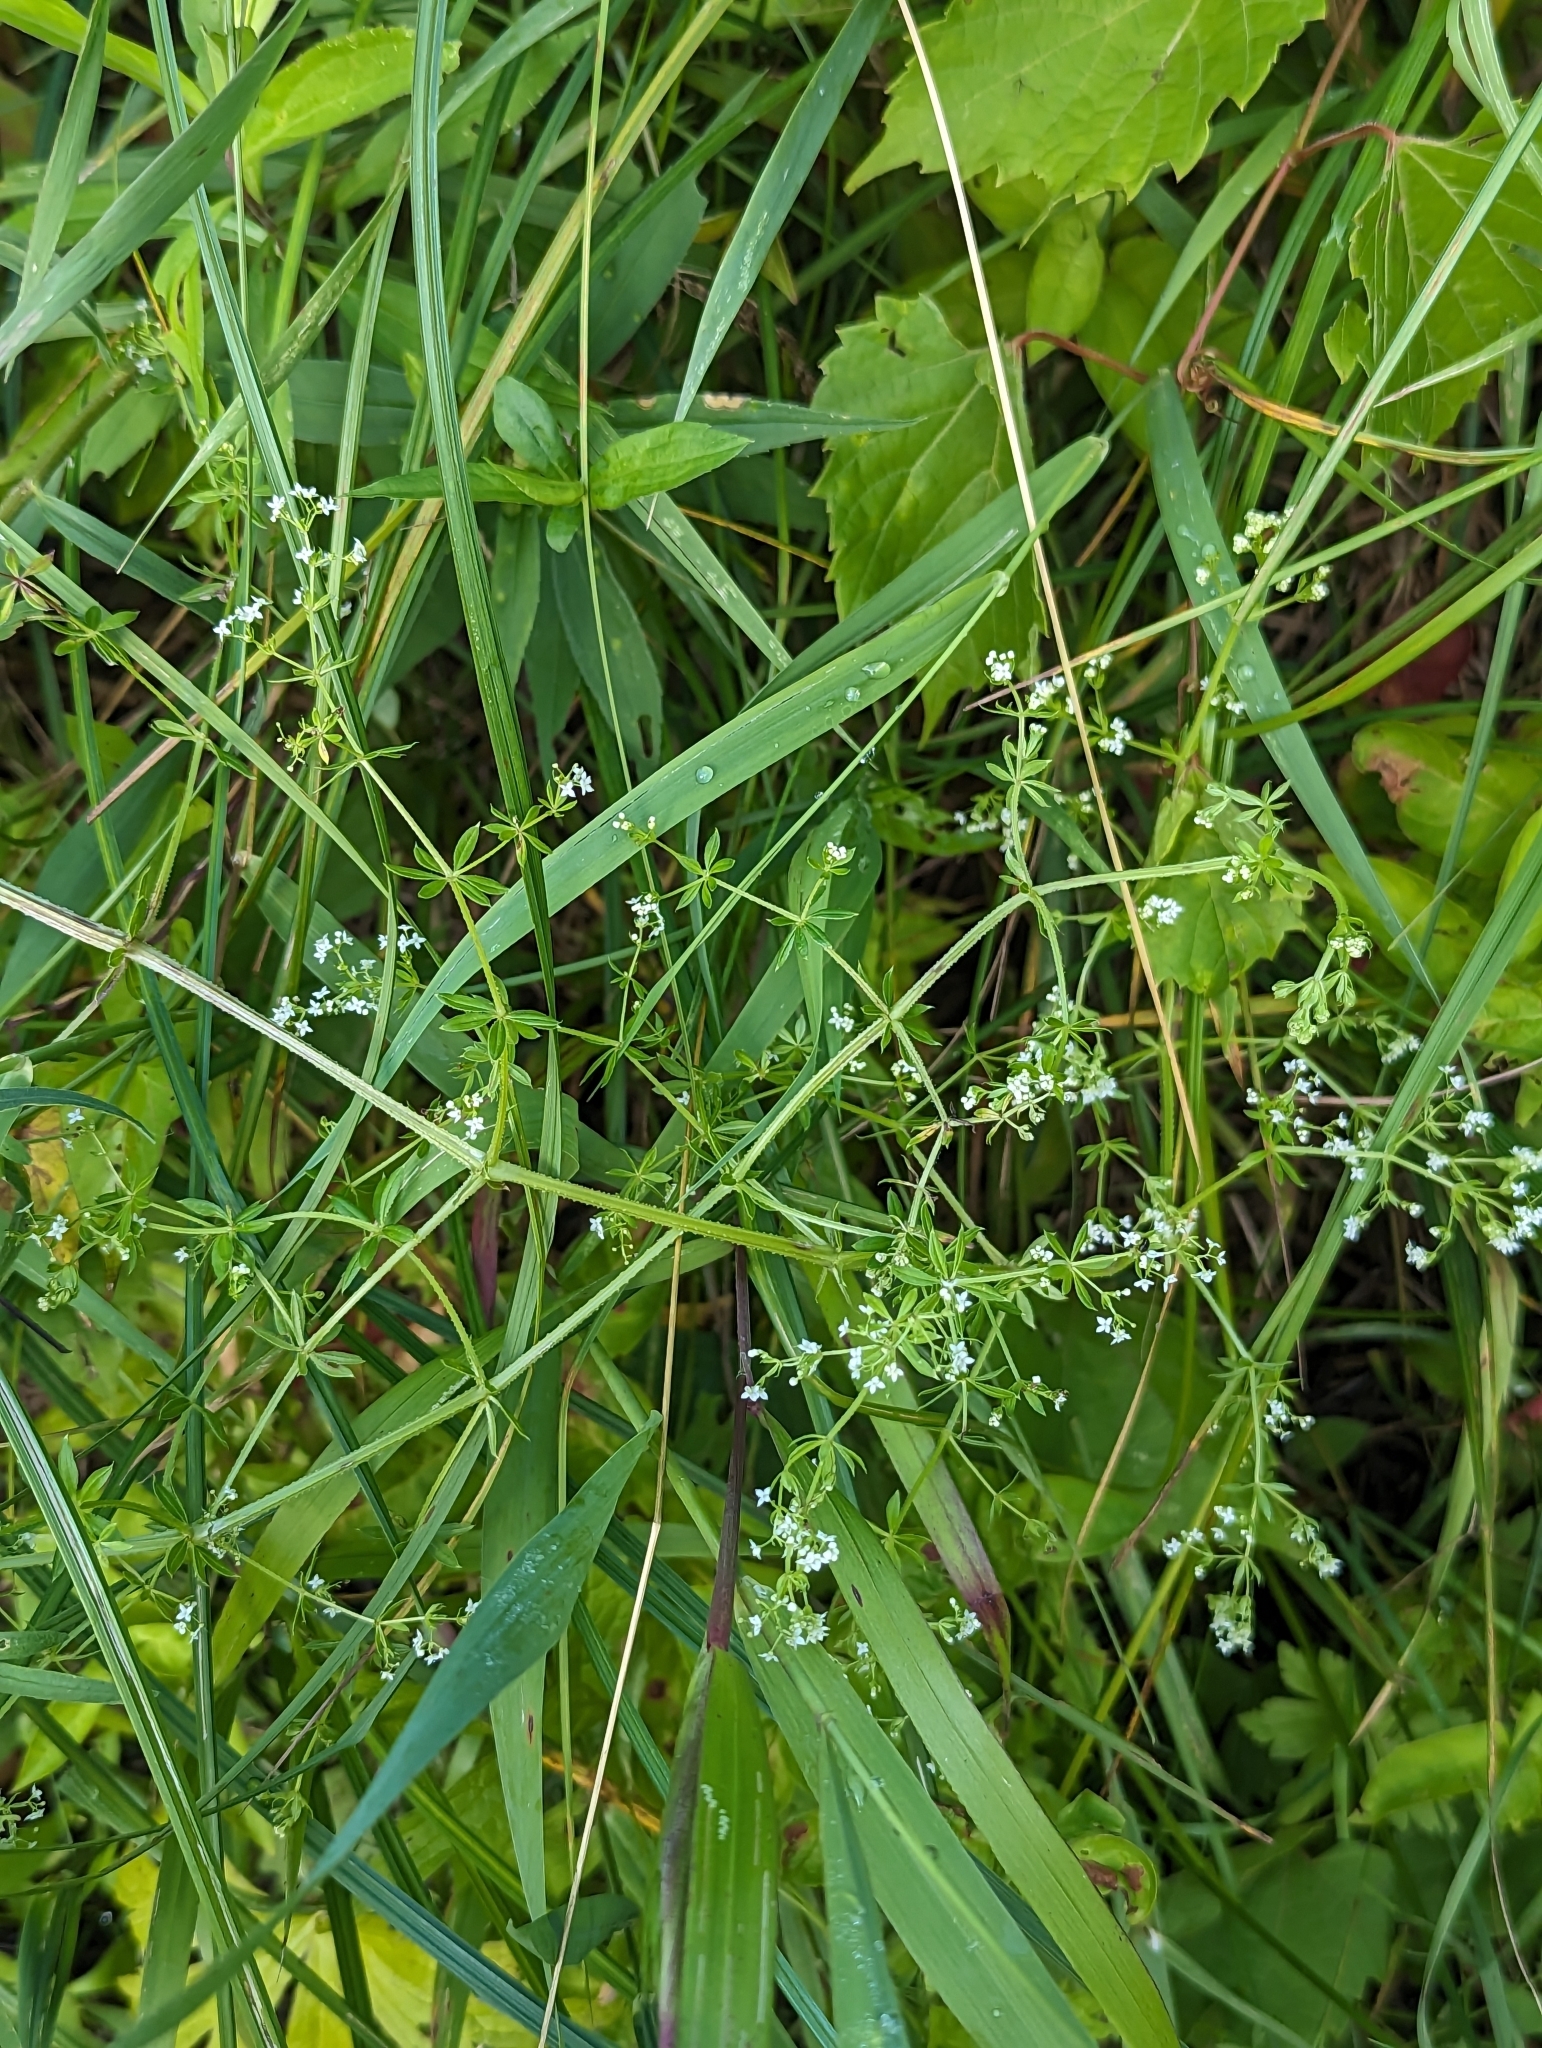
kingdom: Plantae
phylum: Tracheophyta
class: Magnoliopsida
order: Gentianales
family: Rubiaceae
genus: Galium
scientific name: Galium asprellum
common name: Rough bedstraw
